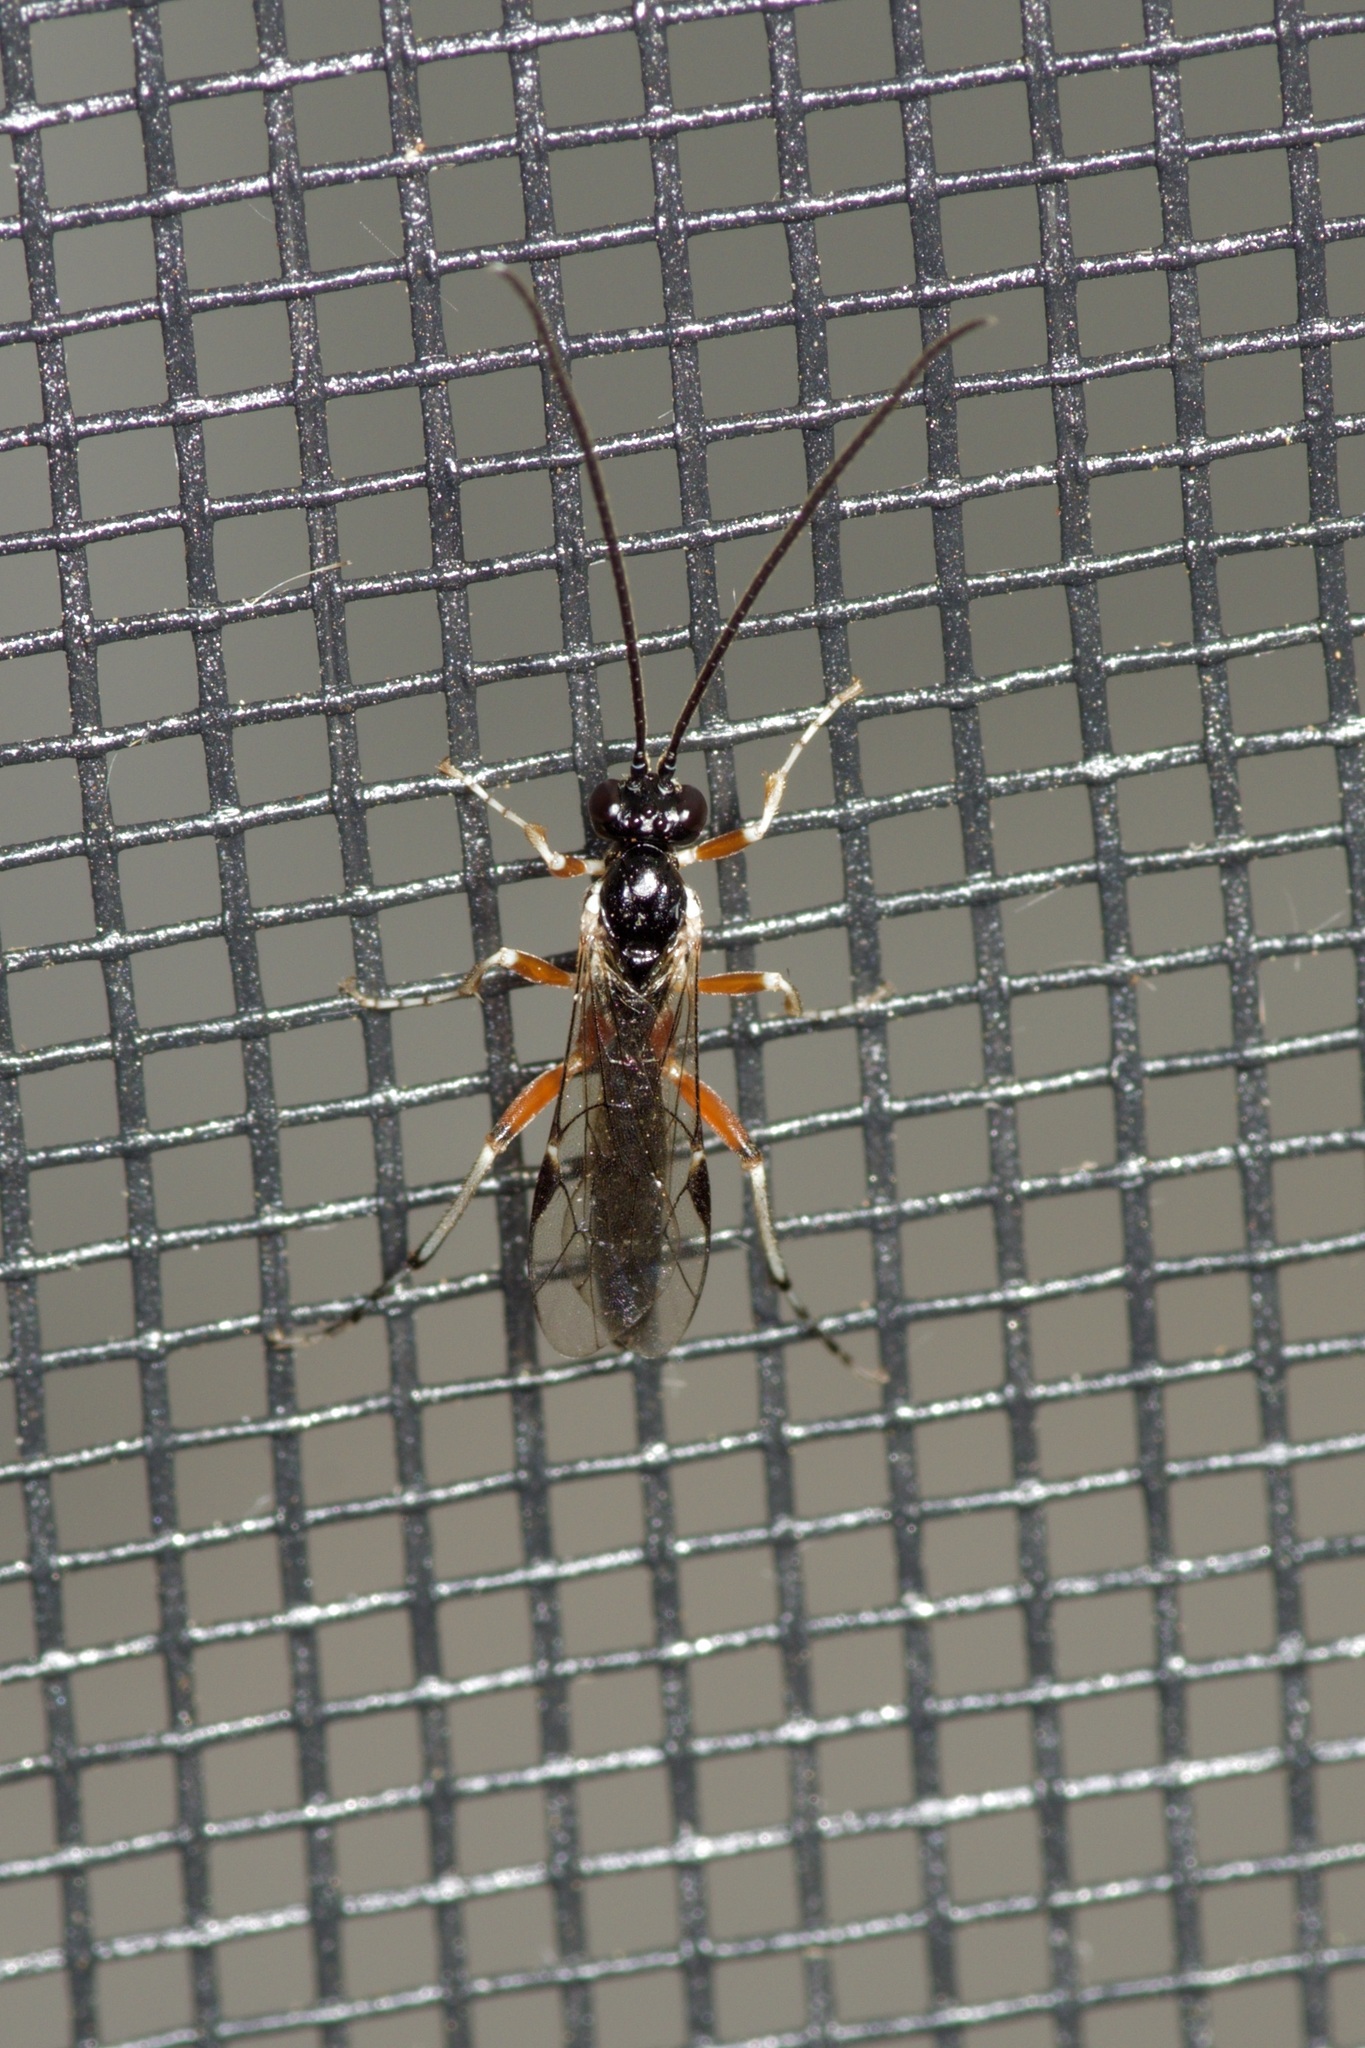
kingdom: Animalia
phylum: Arthropoda
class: Insecta
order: Hymenoptera
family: Ichneumonidae
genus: Diplazon
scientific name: Diplazon laetatorius
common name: Parasitoid wasp
